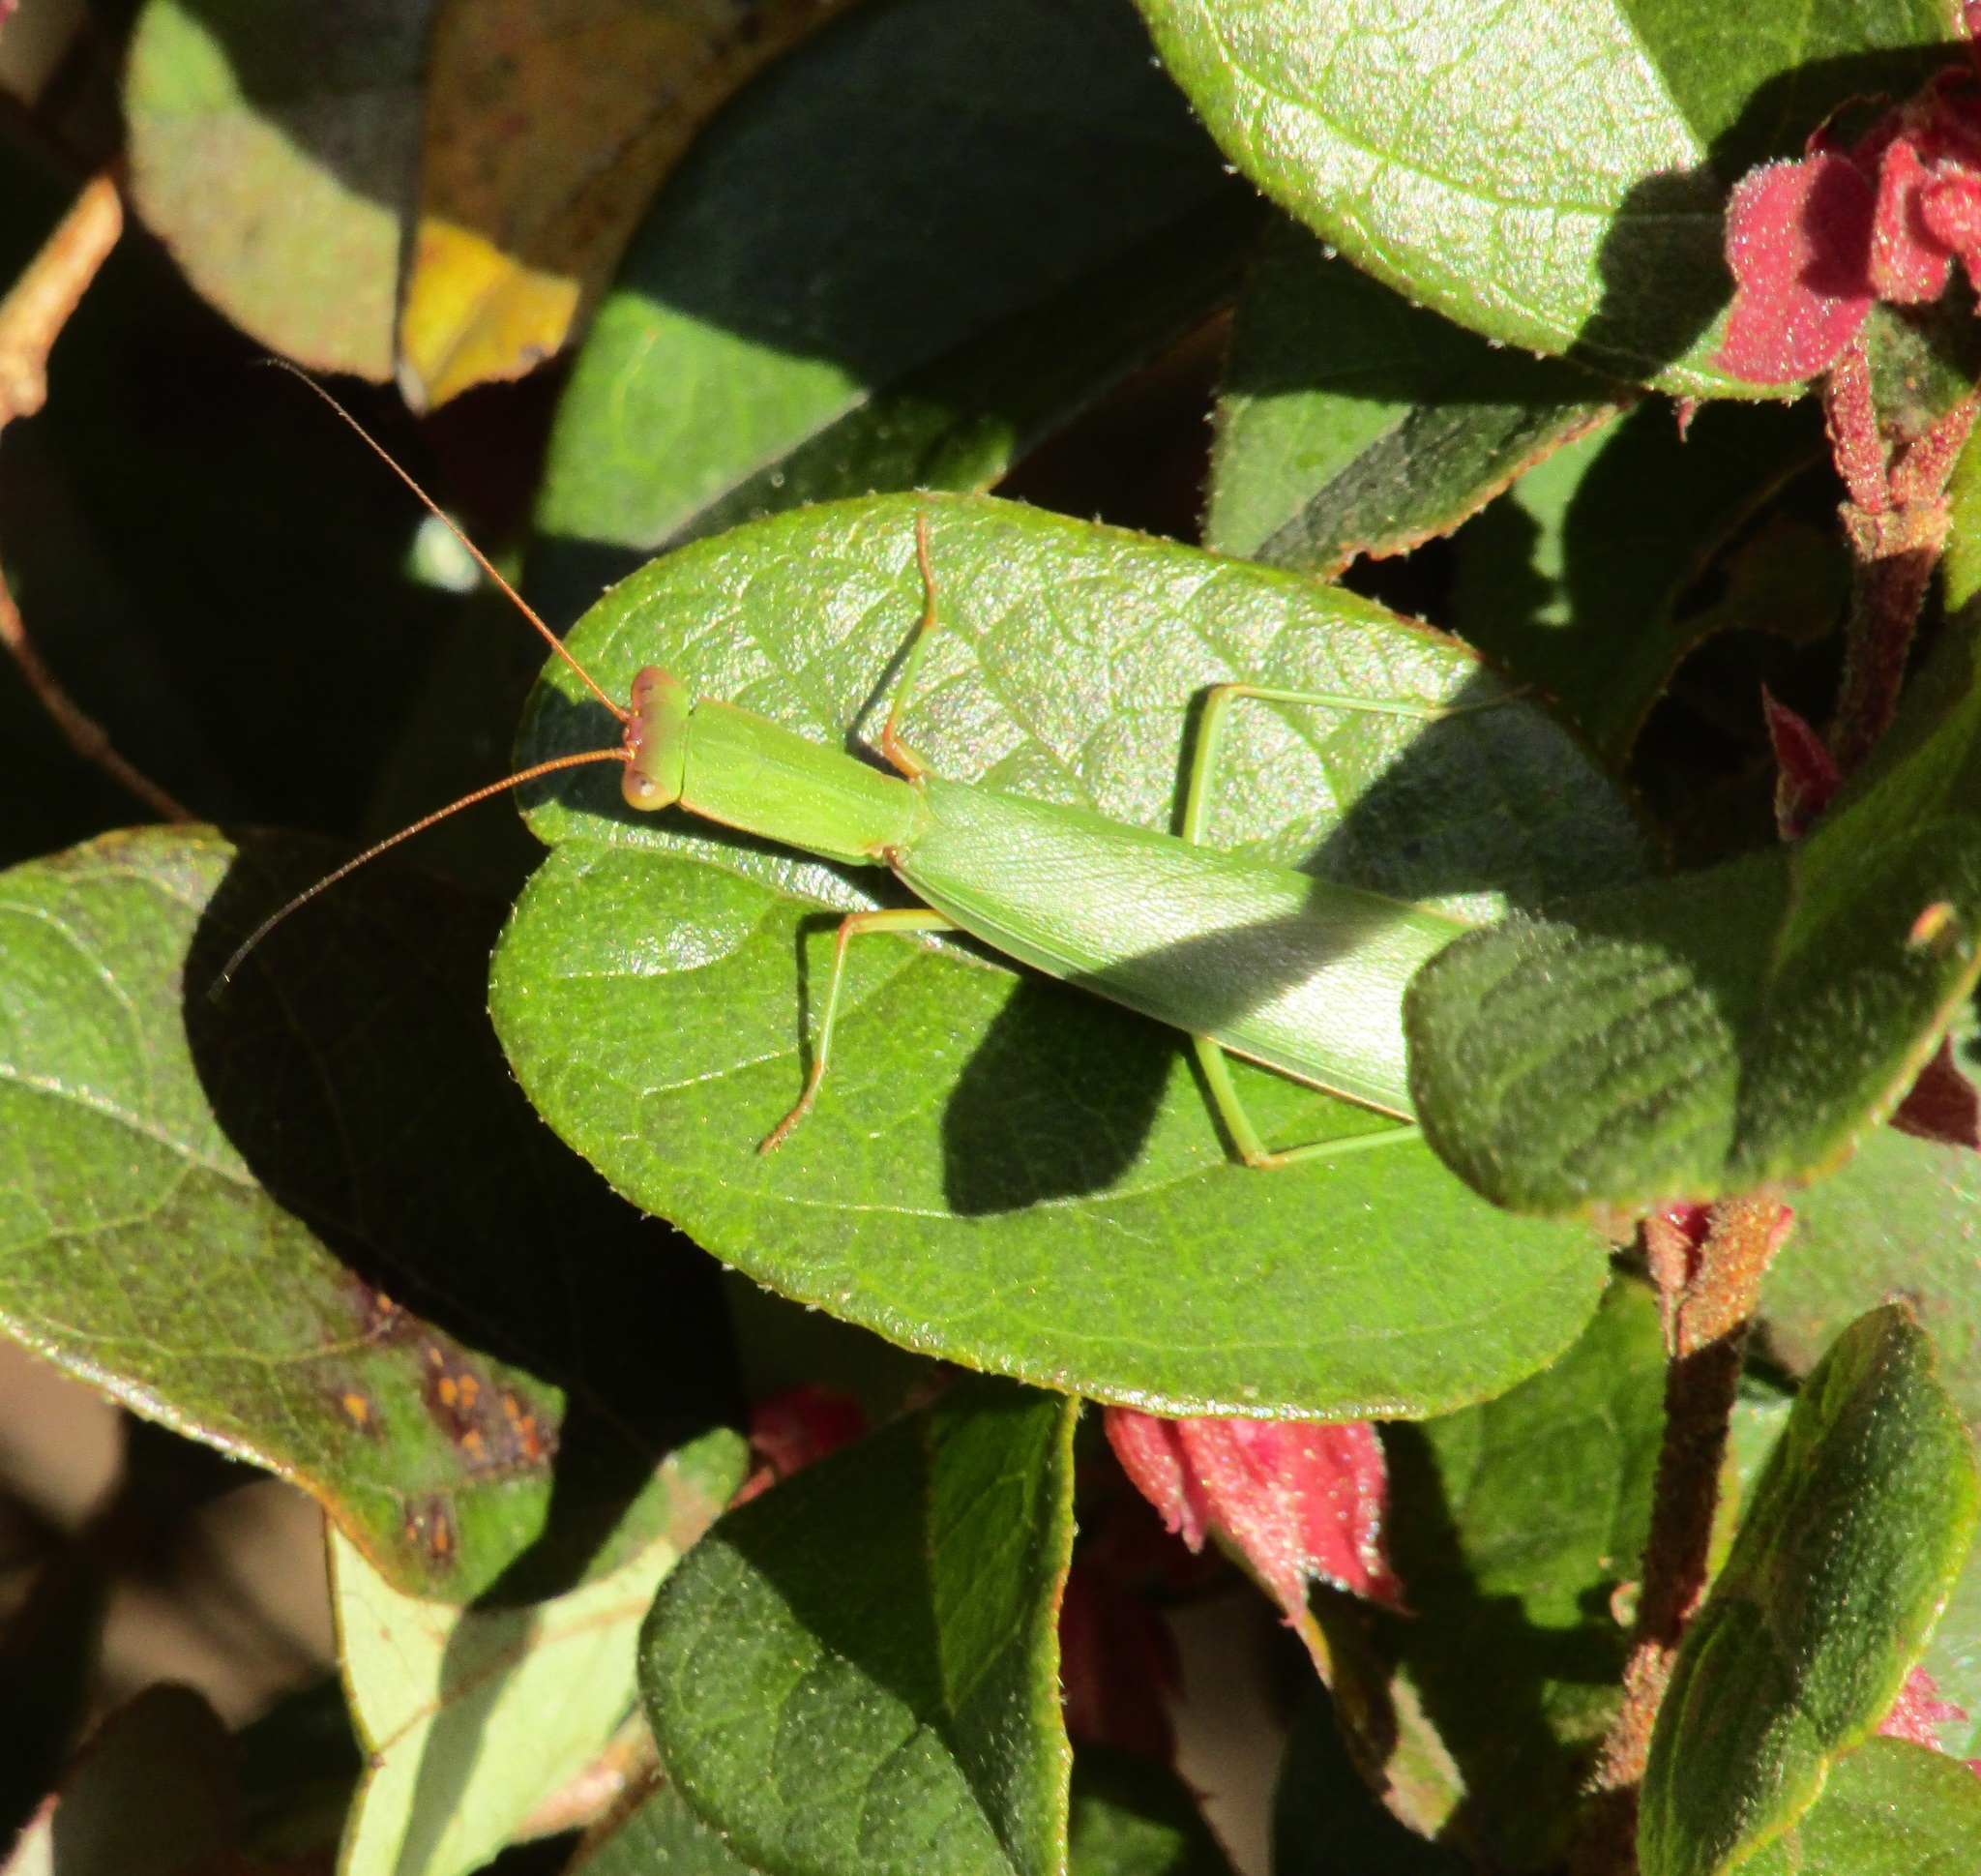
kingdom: Animalia
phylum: Arthropoda
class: Insecta
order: Mantodea
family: Mantidae
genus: Orthodera
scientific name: Orthodera novaezealandiae
